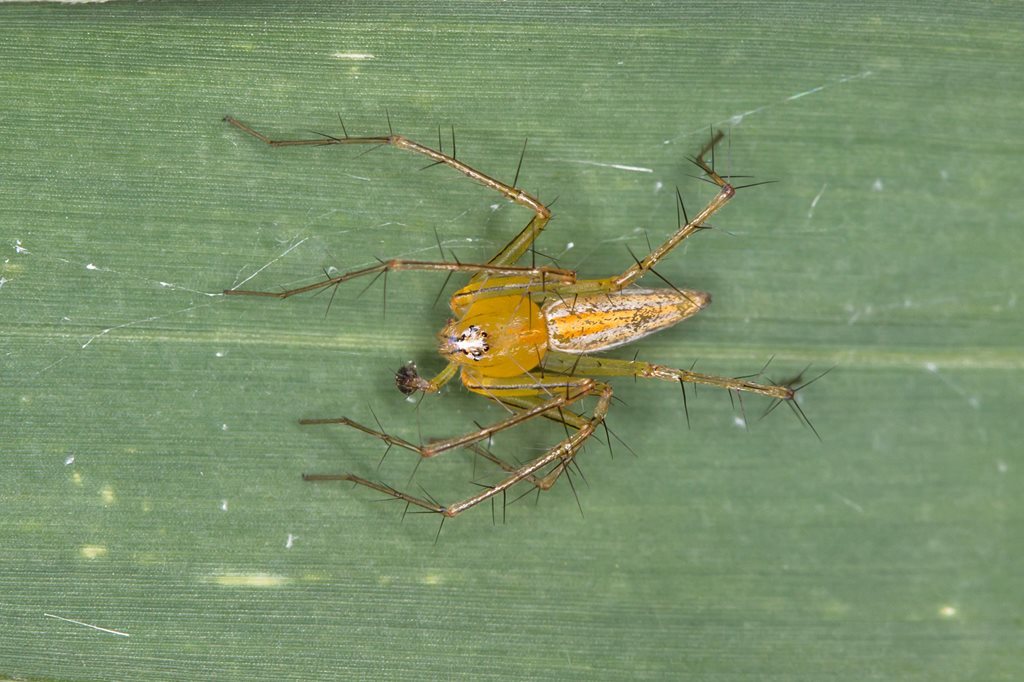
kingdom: Animalia
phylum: Arthropoda
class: Arachnida
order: Araneae
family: Oxyopidae
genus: Oxyopes
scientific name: Oxyopes macilentus
